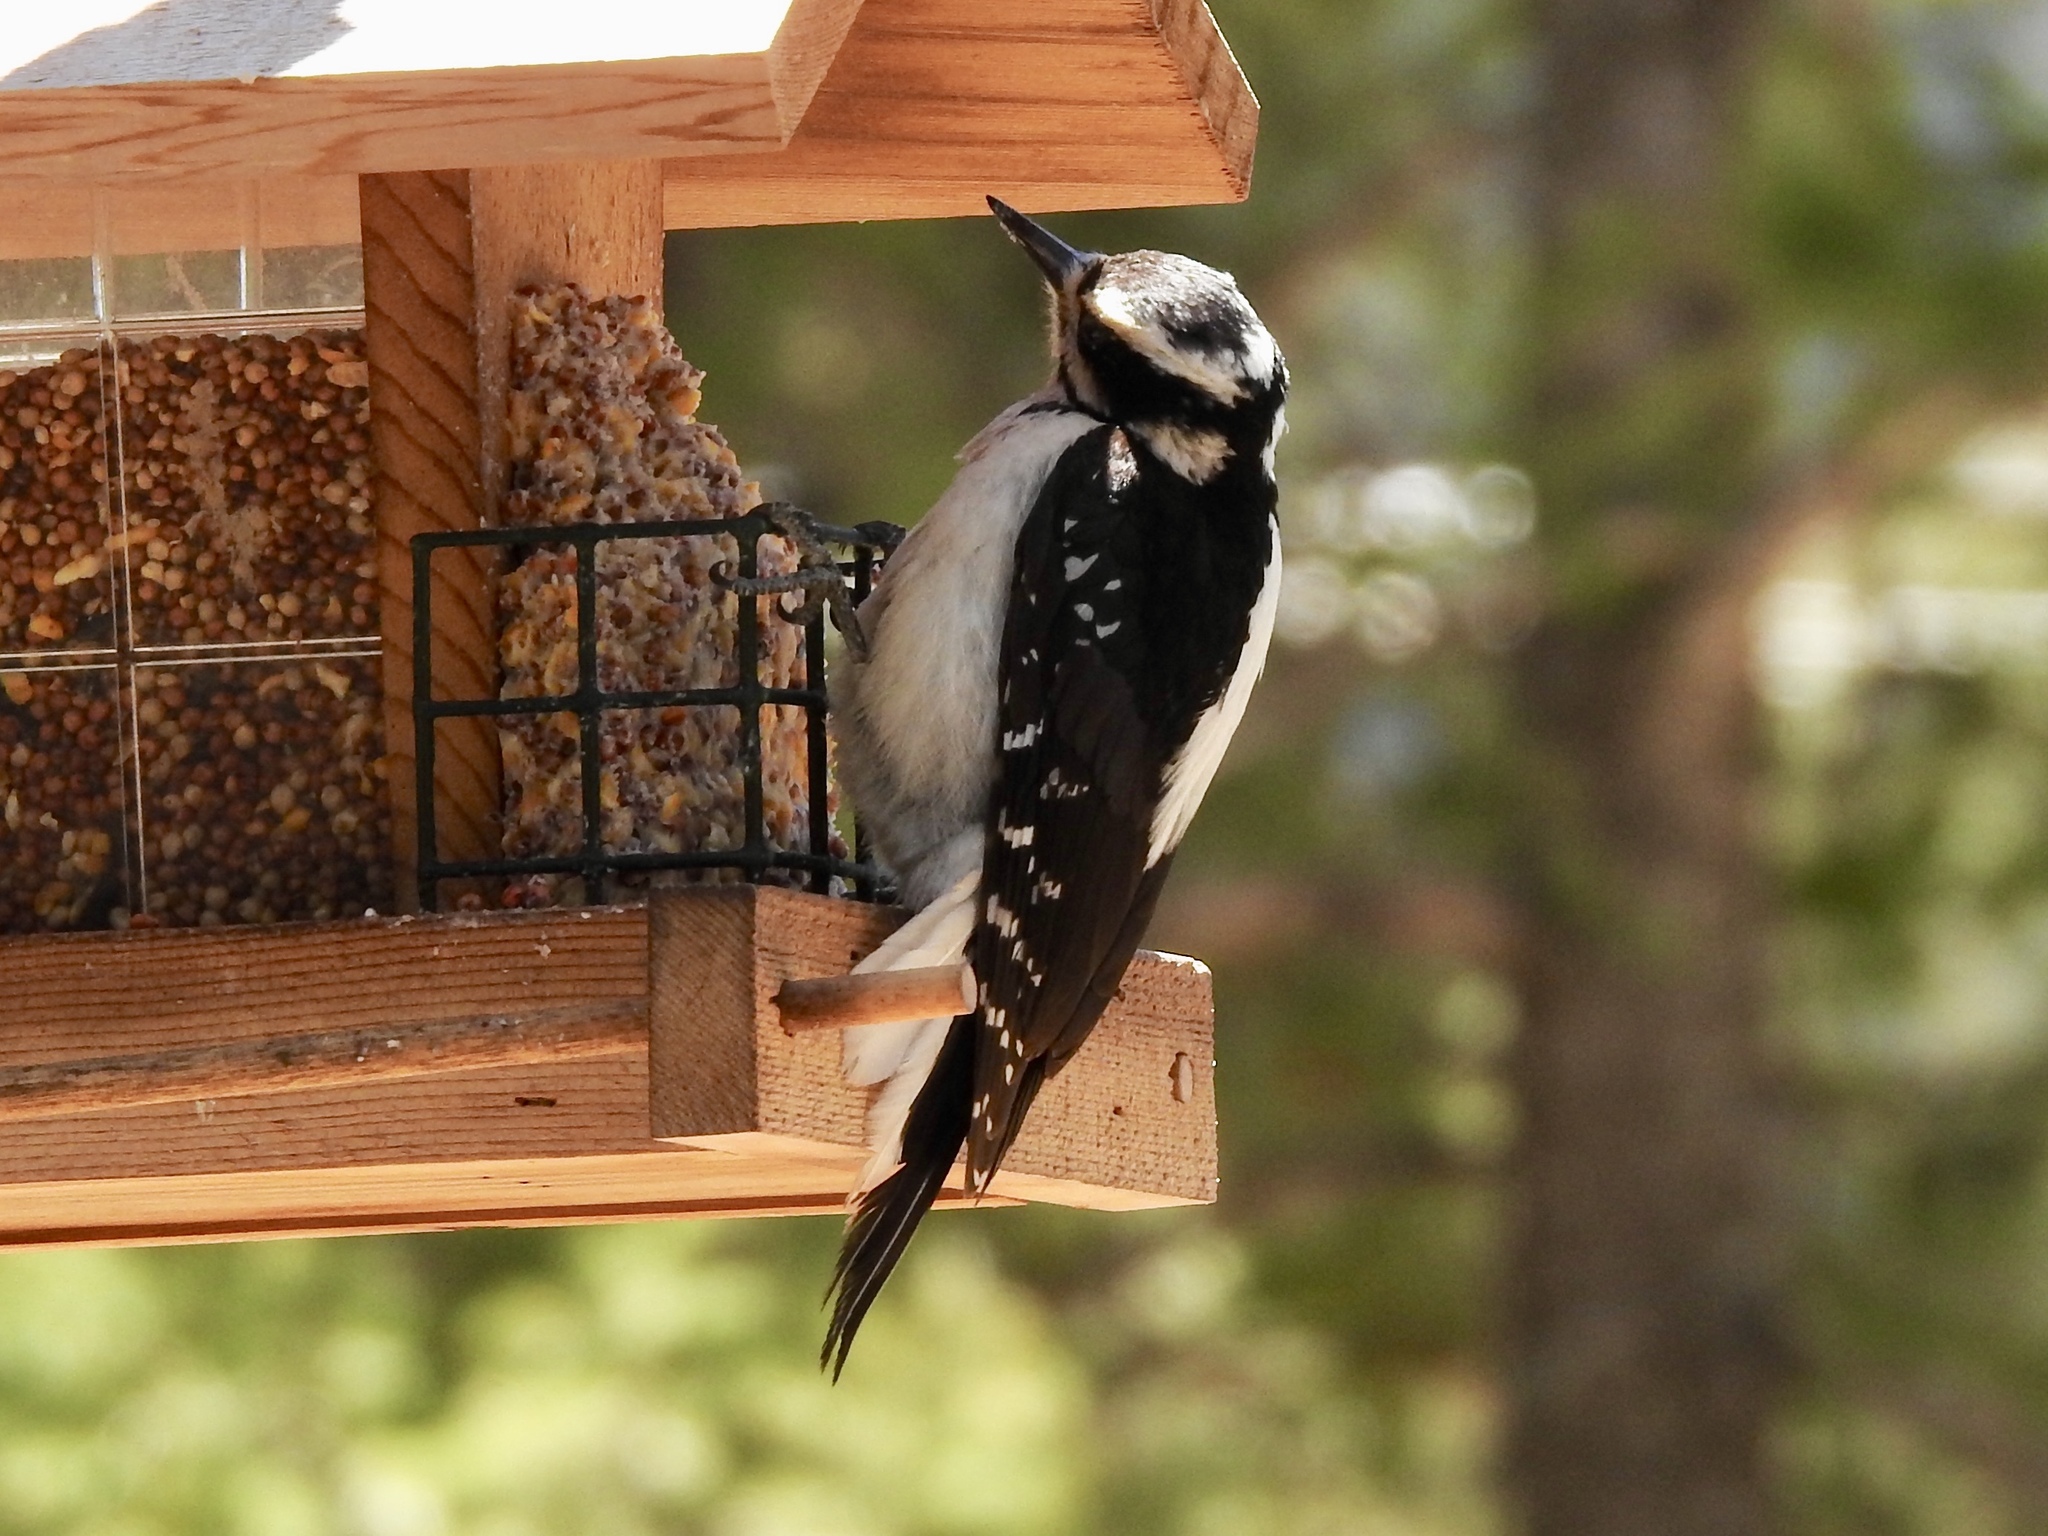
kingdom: Animalia
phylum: Chordata
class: Aves
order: Piciformes
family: Picidae
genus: Leuconotopicus
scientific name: Leuconotopicus villosus
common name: Hairy woodpecker
